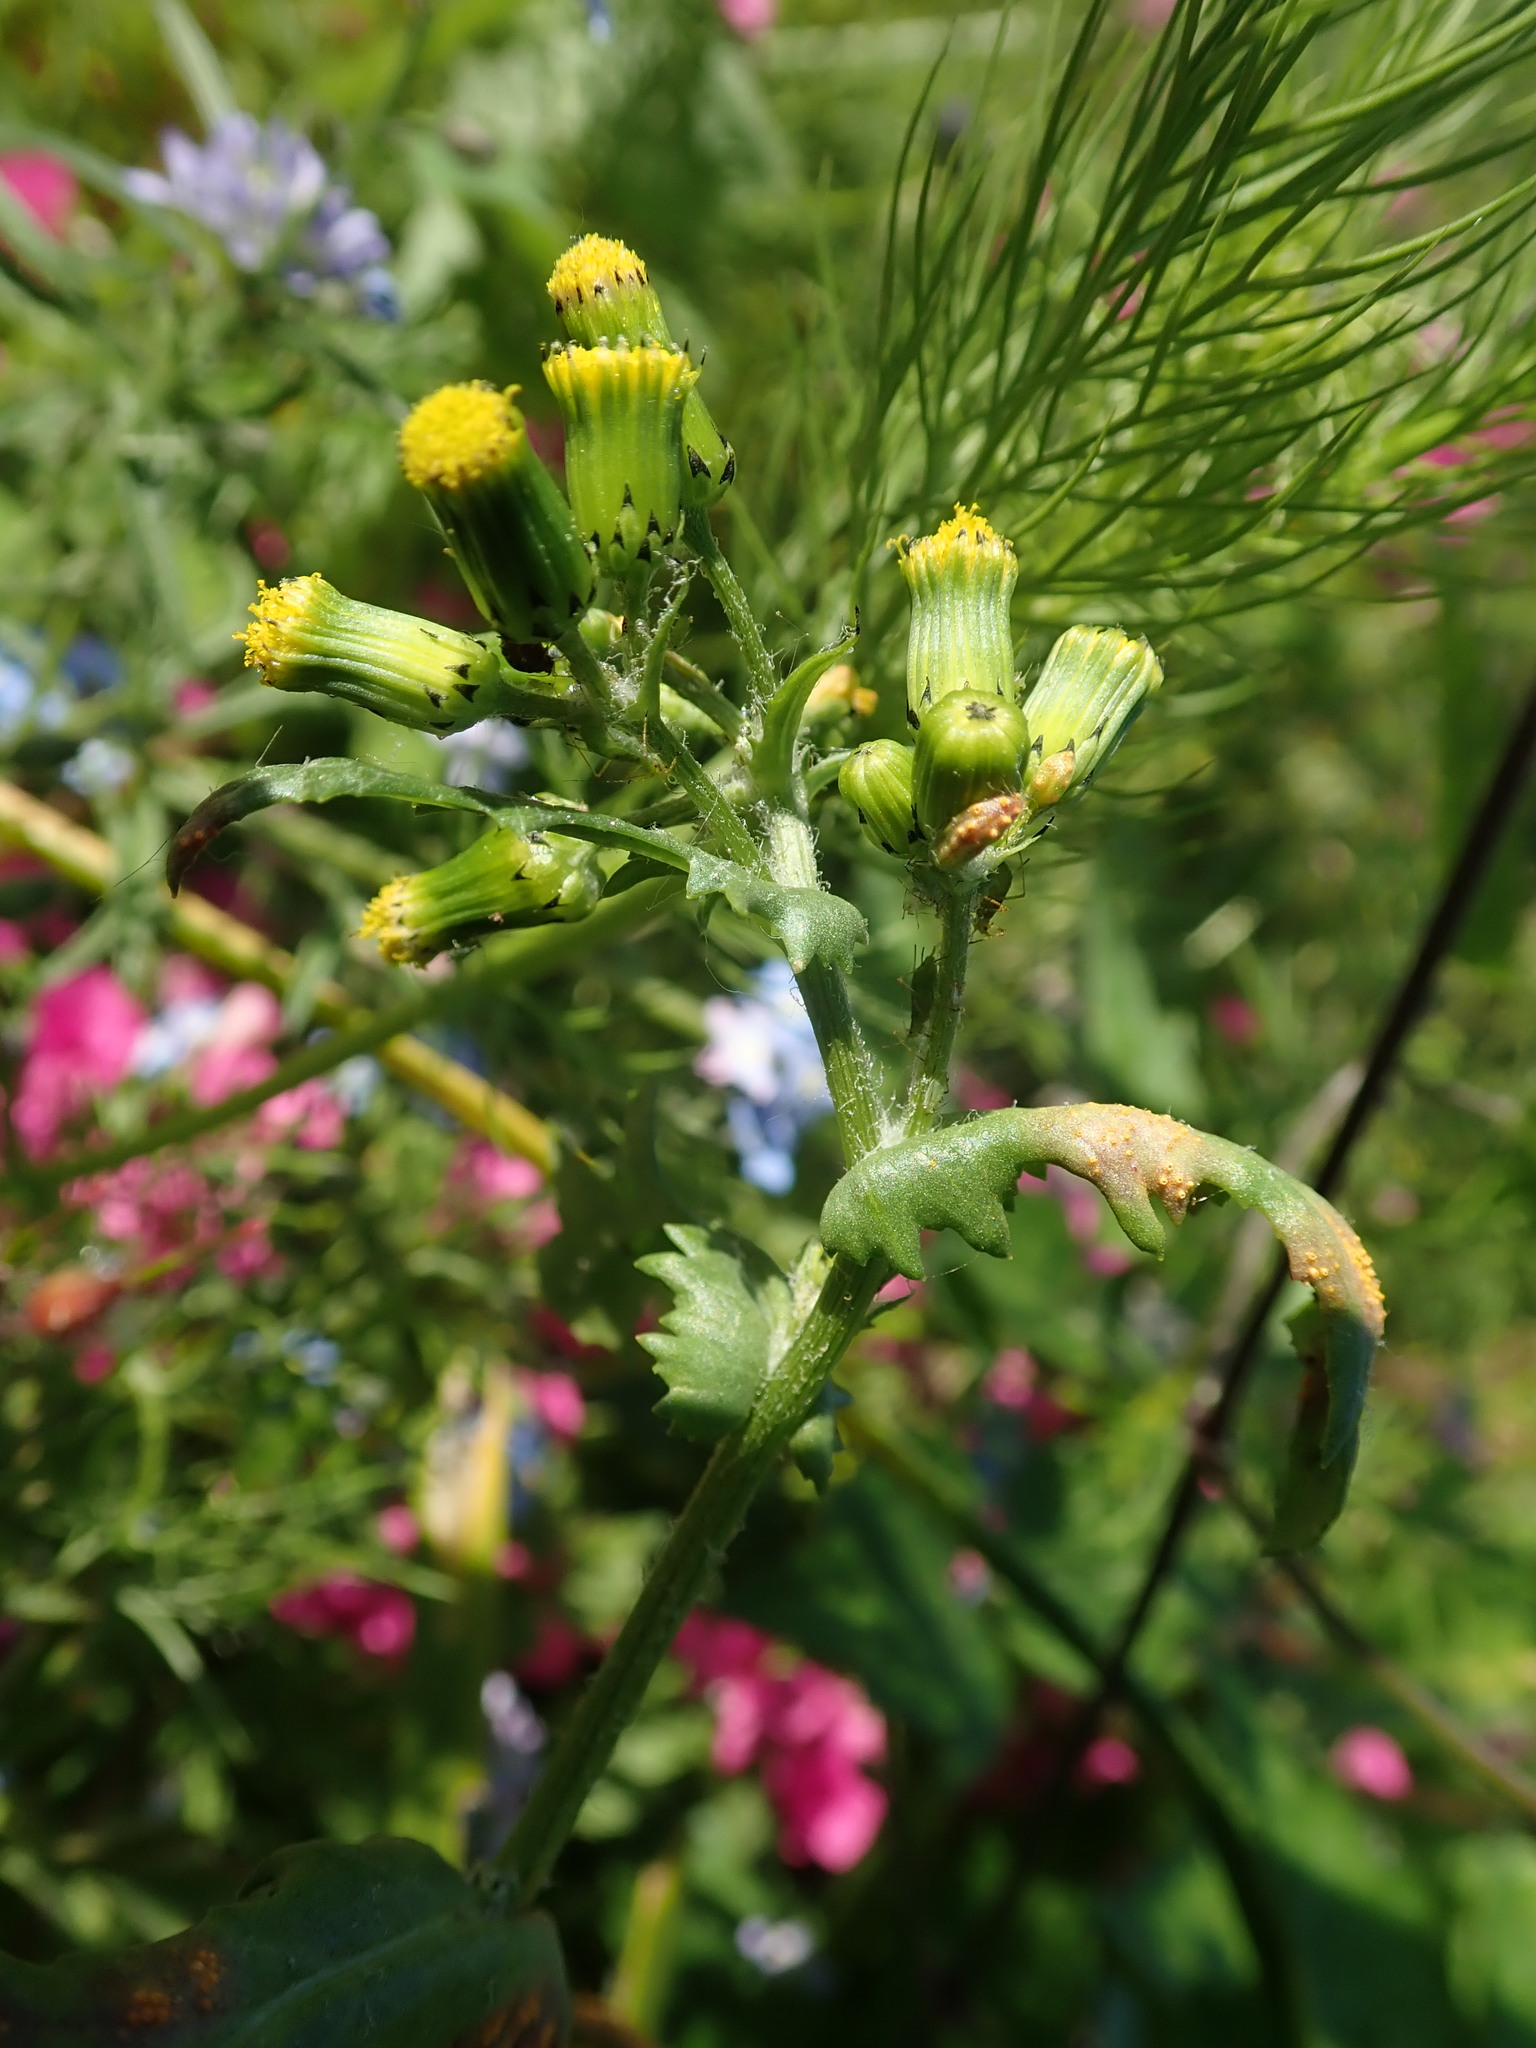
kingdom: Fungi
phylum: Basidiomycota
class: Pucciniomycetes
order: Pucciniales
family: Pucciniaceae
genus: Puccinia
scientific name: Puccinia lagenophorae
